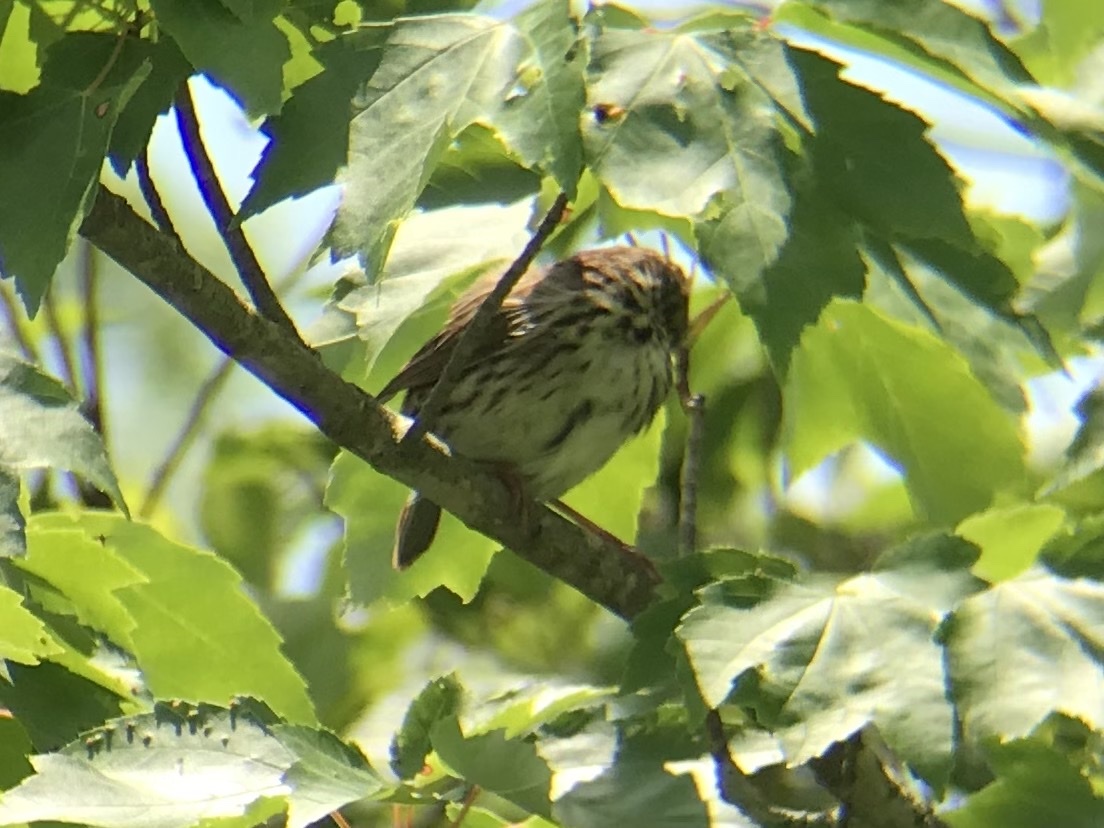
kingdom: Animalia
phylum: Chordata
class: Aves
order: Passeriformes
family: Passerellidae
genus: Melospiza
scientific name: Melospiza melodia
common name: Song sparrow
